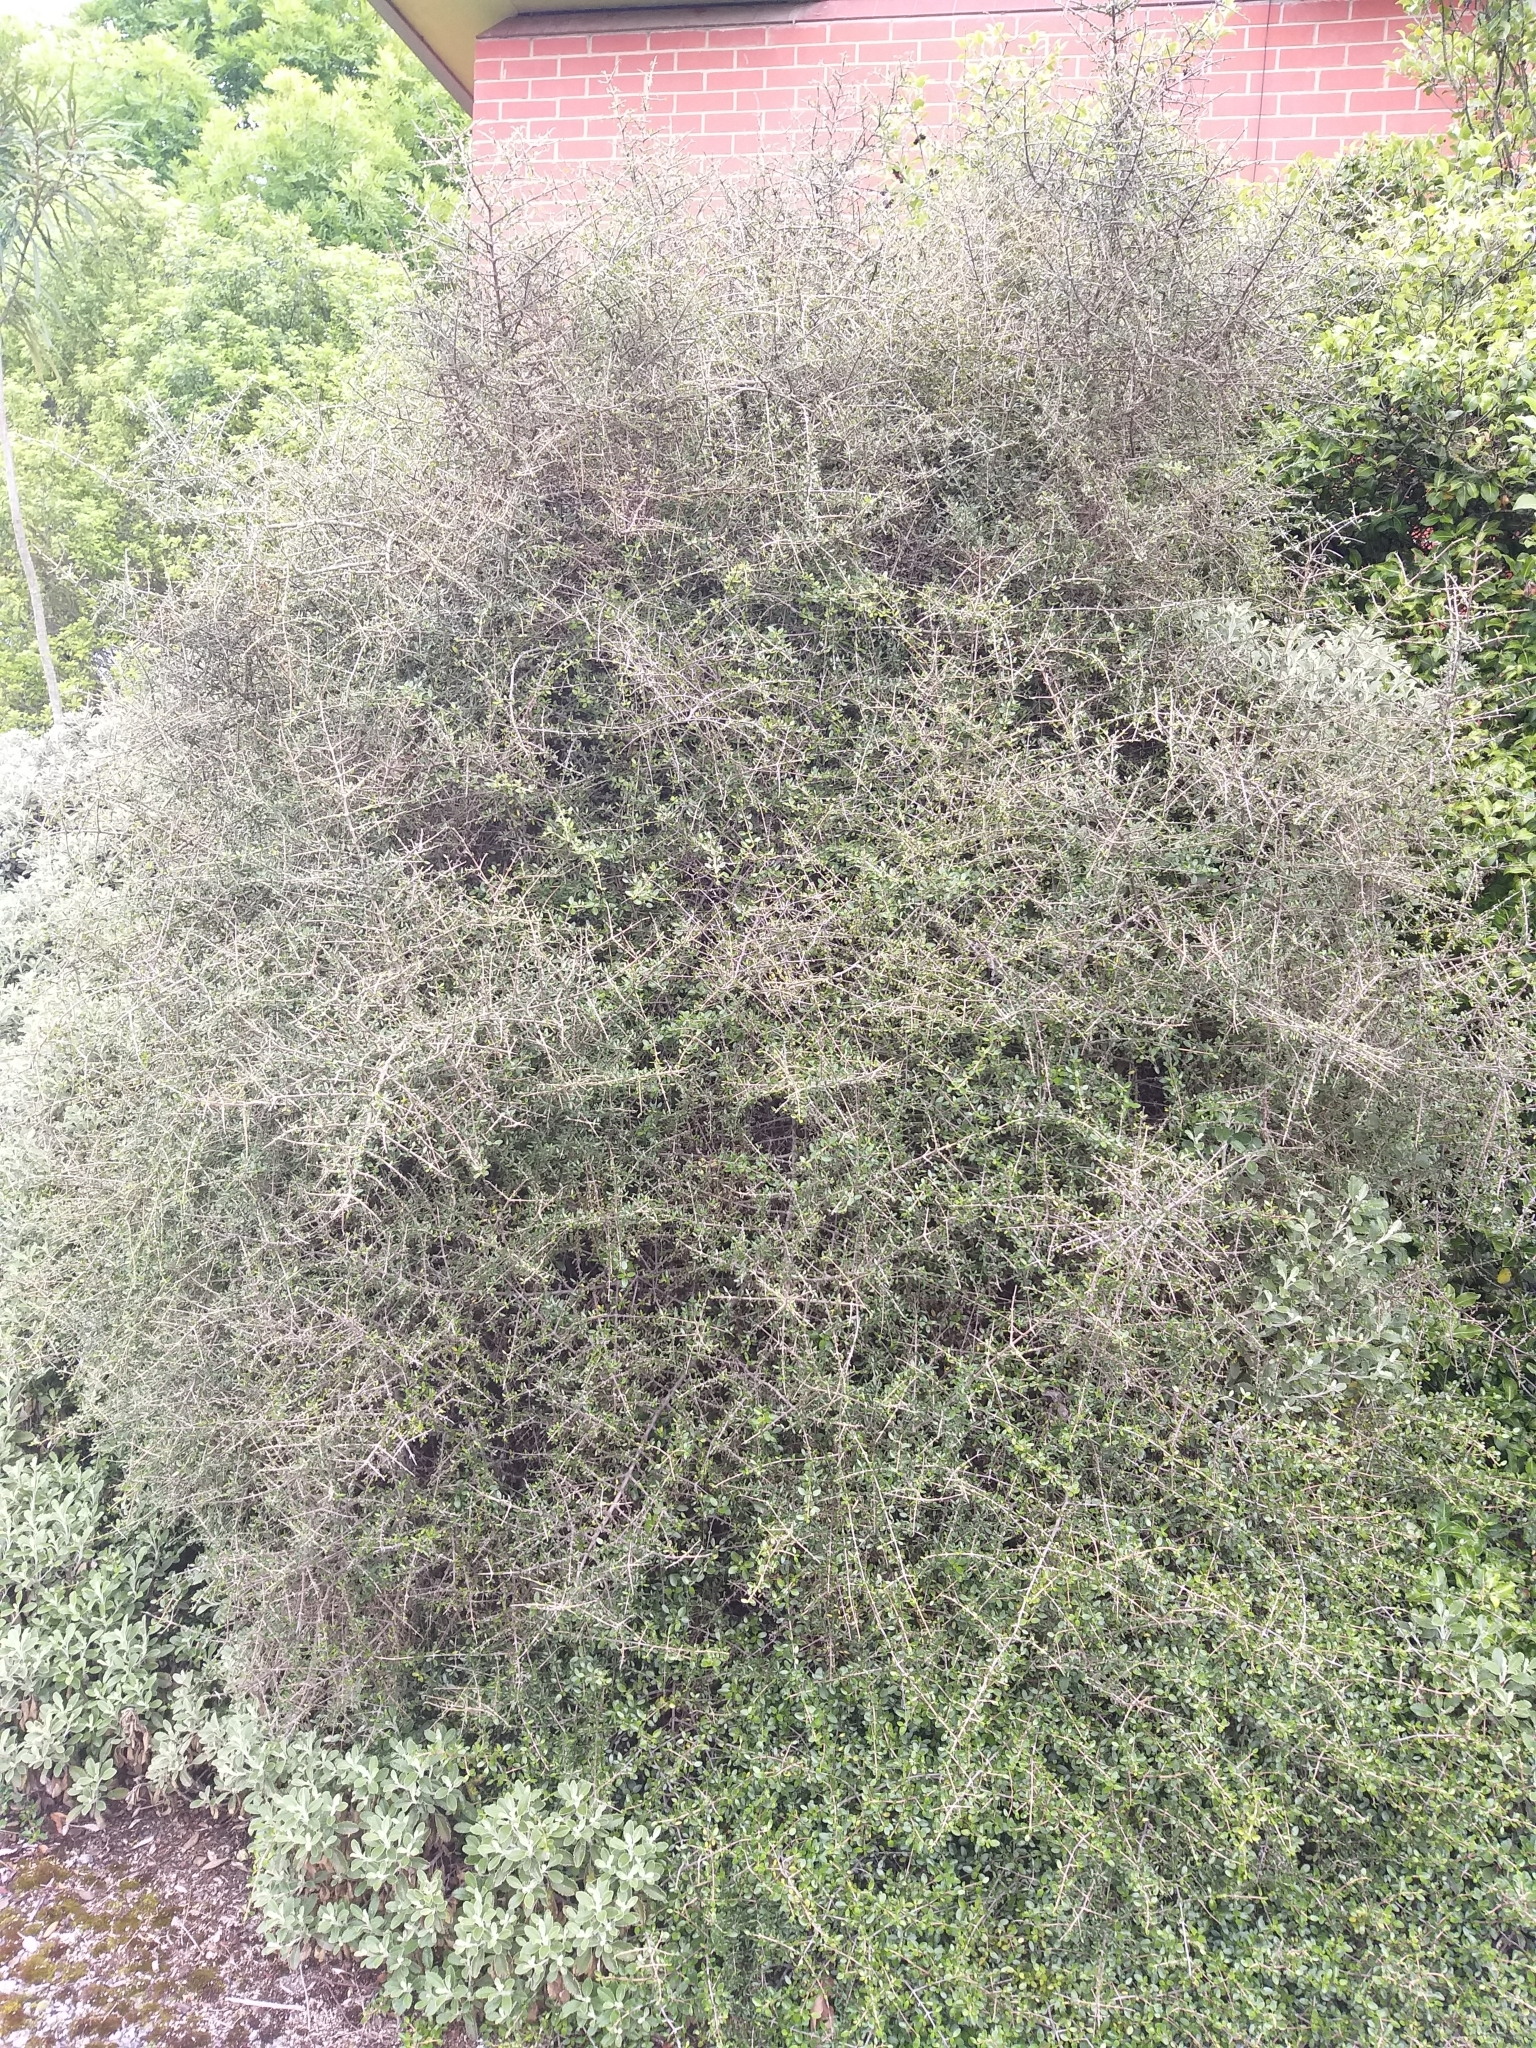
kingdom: Plantae
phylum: Tracheophyta
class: Magnoliopsida
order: Gentianales
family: Rubiaceae
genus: Coprosma
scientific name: Coprosma propinqua
